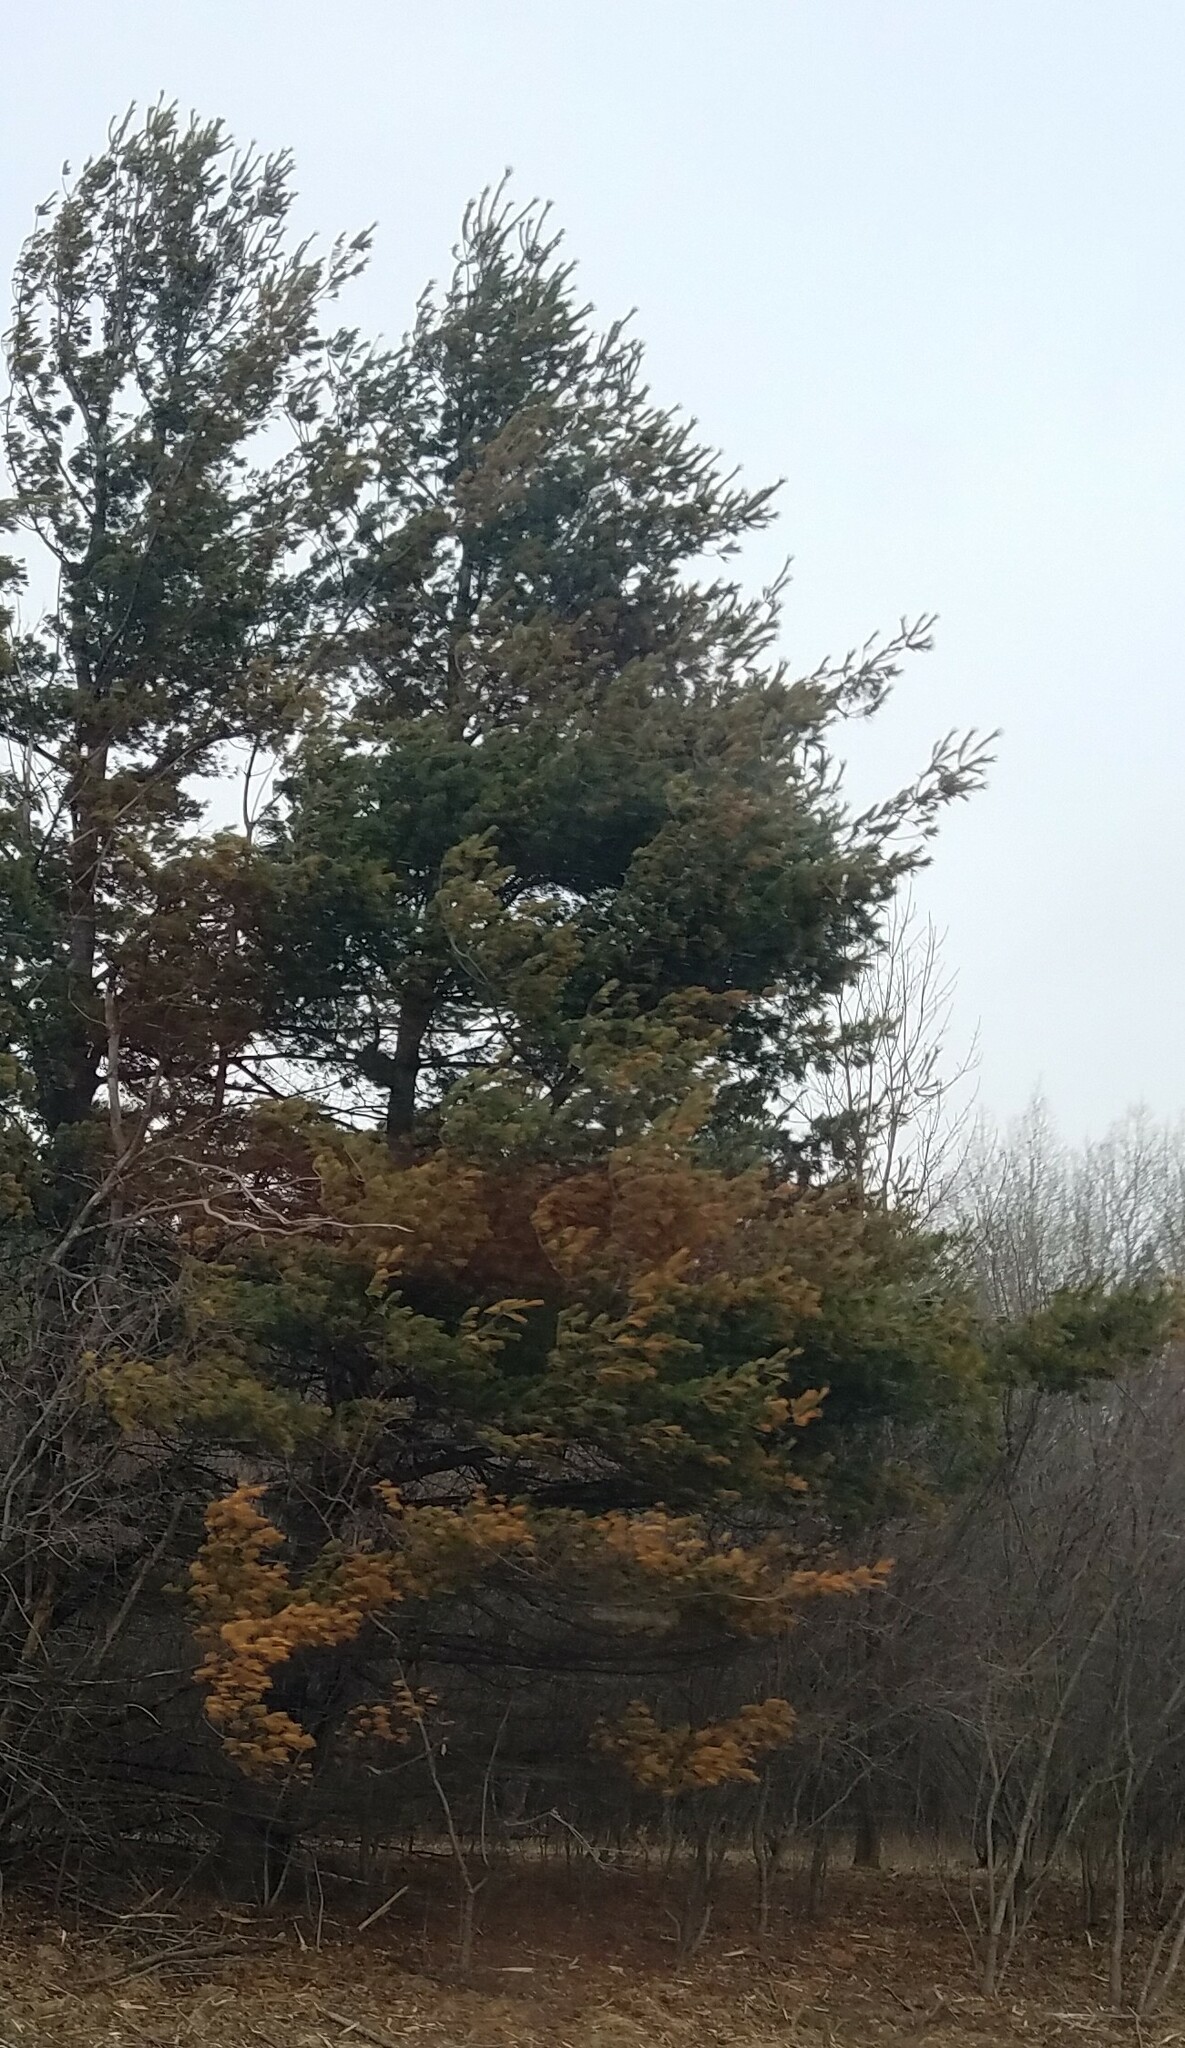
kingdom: Plantae
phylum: Tracheophyta
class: Pinopsida
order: Pinales
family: Pinaceae
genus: Pinus
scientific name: Pinus strobus
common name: Weymouth pine
